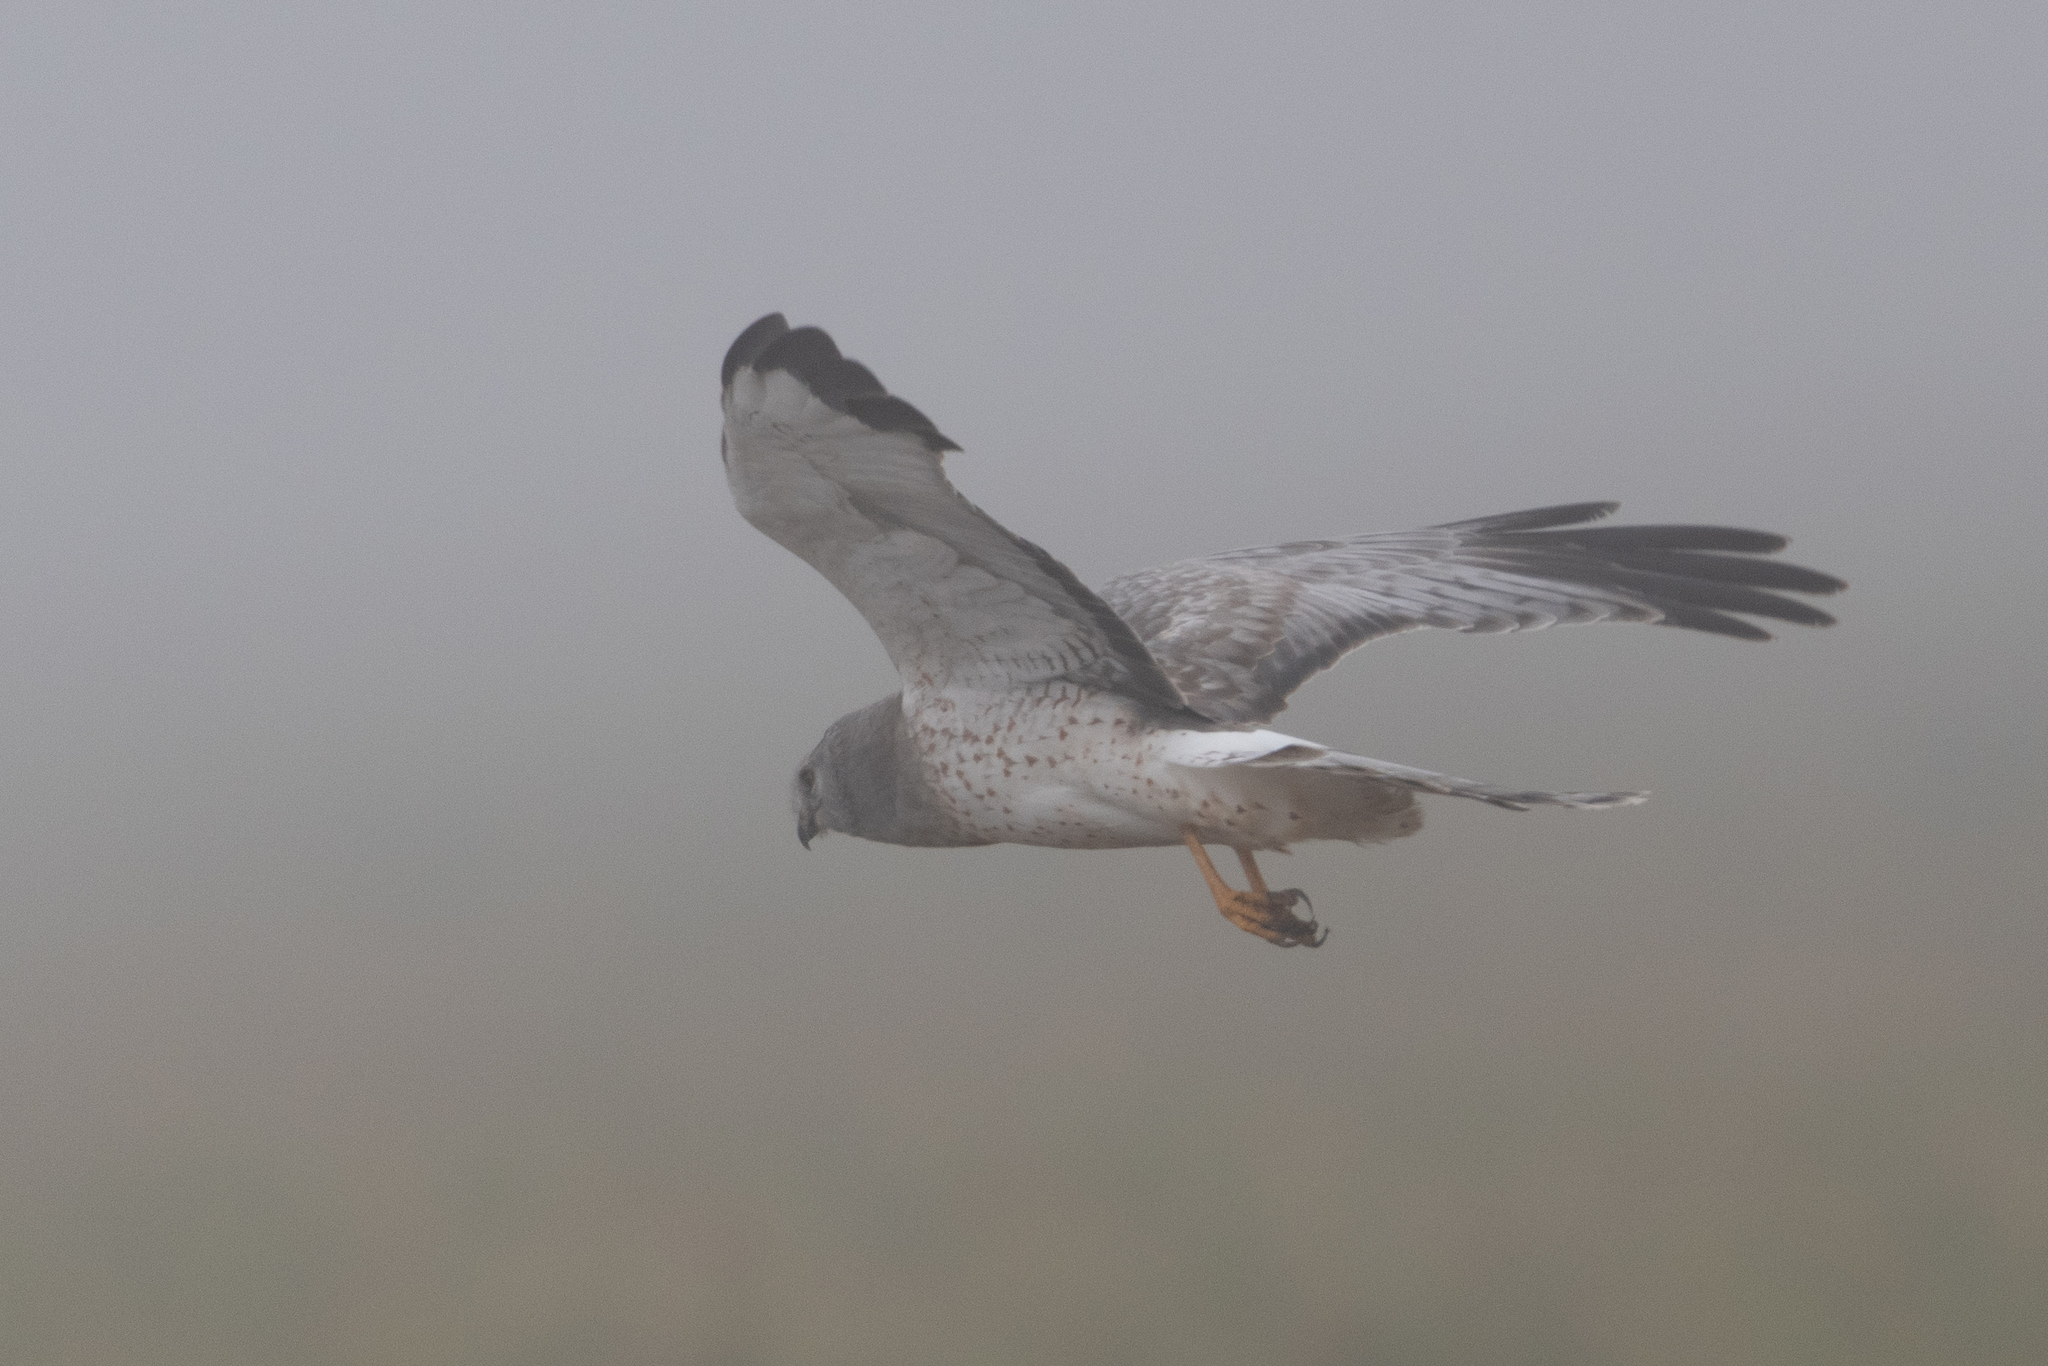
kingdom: Animalia
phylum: Chordata
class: Aves
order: Accipitriformes
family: Accipitridae
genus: Circus
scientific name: Circus cyaneus
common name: Hen harrier
